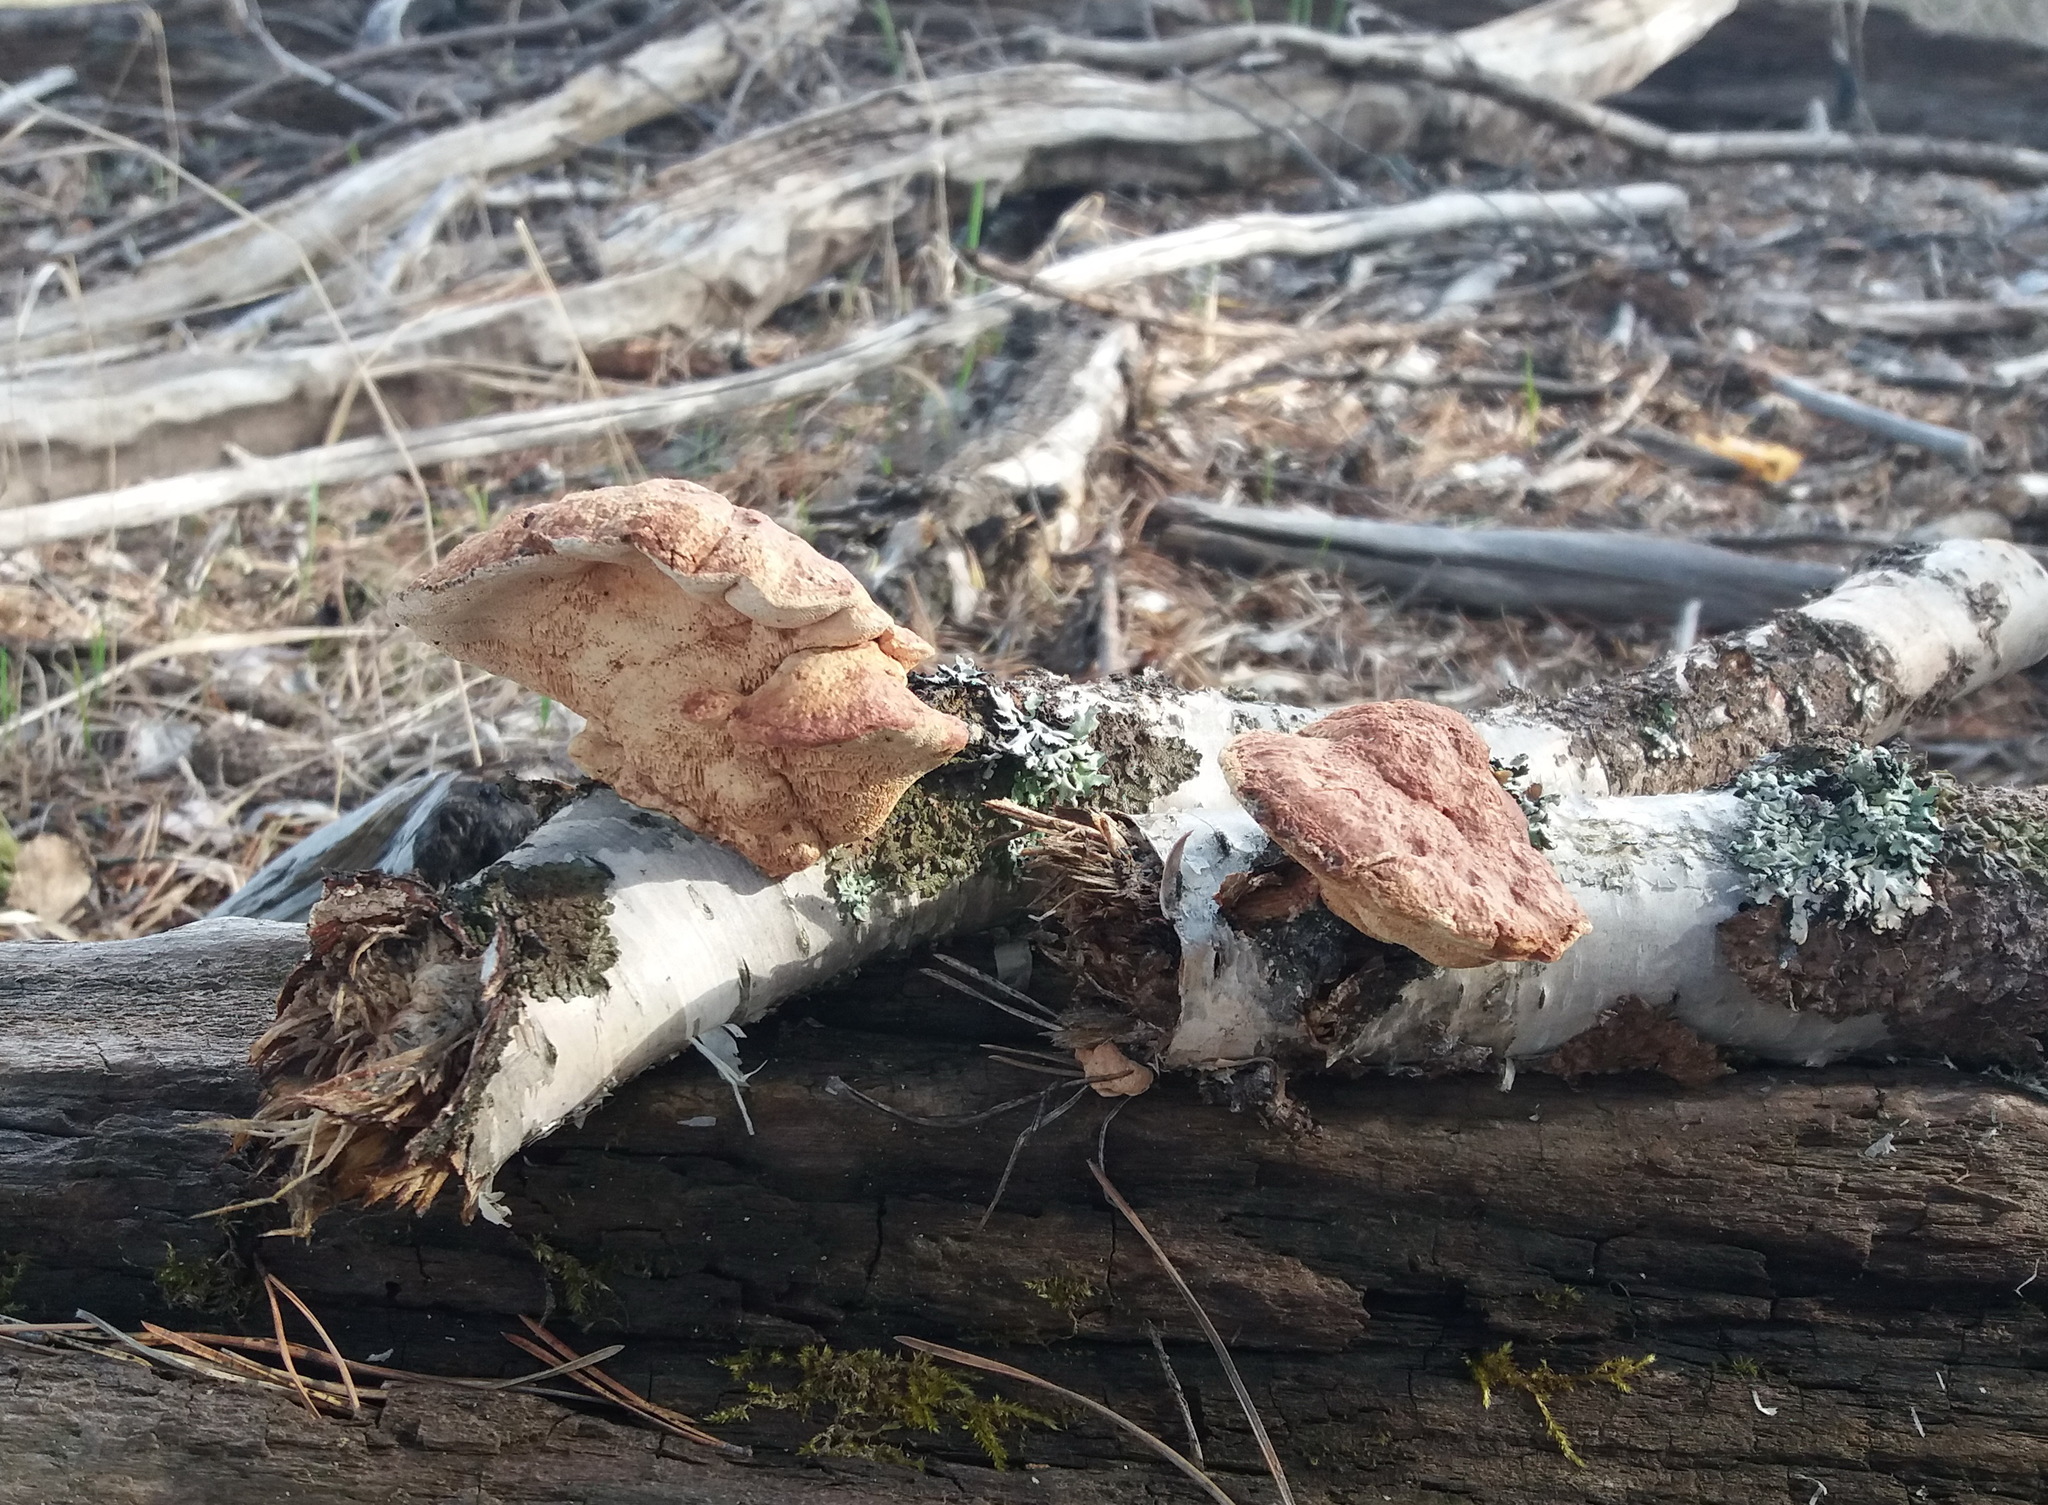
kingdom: Fungi
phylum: Basidiomycota
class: Agaricomycetes
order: Polyporales
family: Phanerochaetaceae
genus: Hapalopilus
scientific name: Hapalopilus rutilans
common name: Tender nesting polypore
